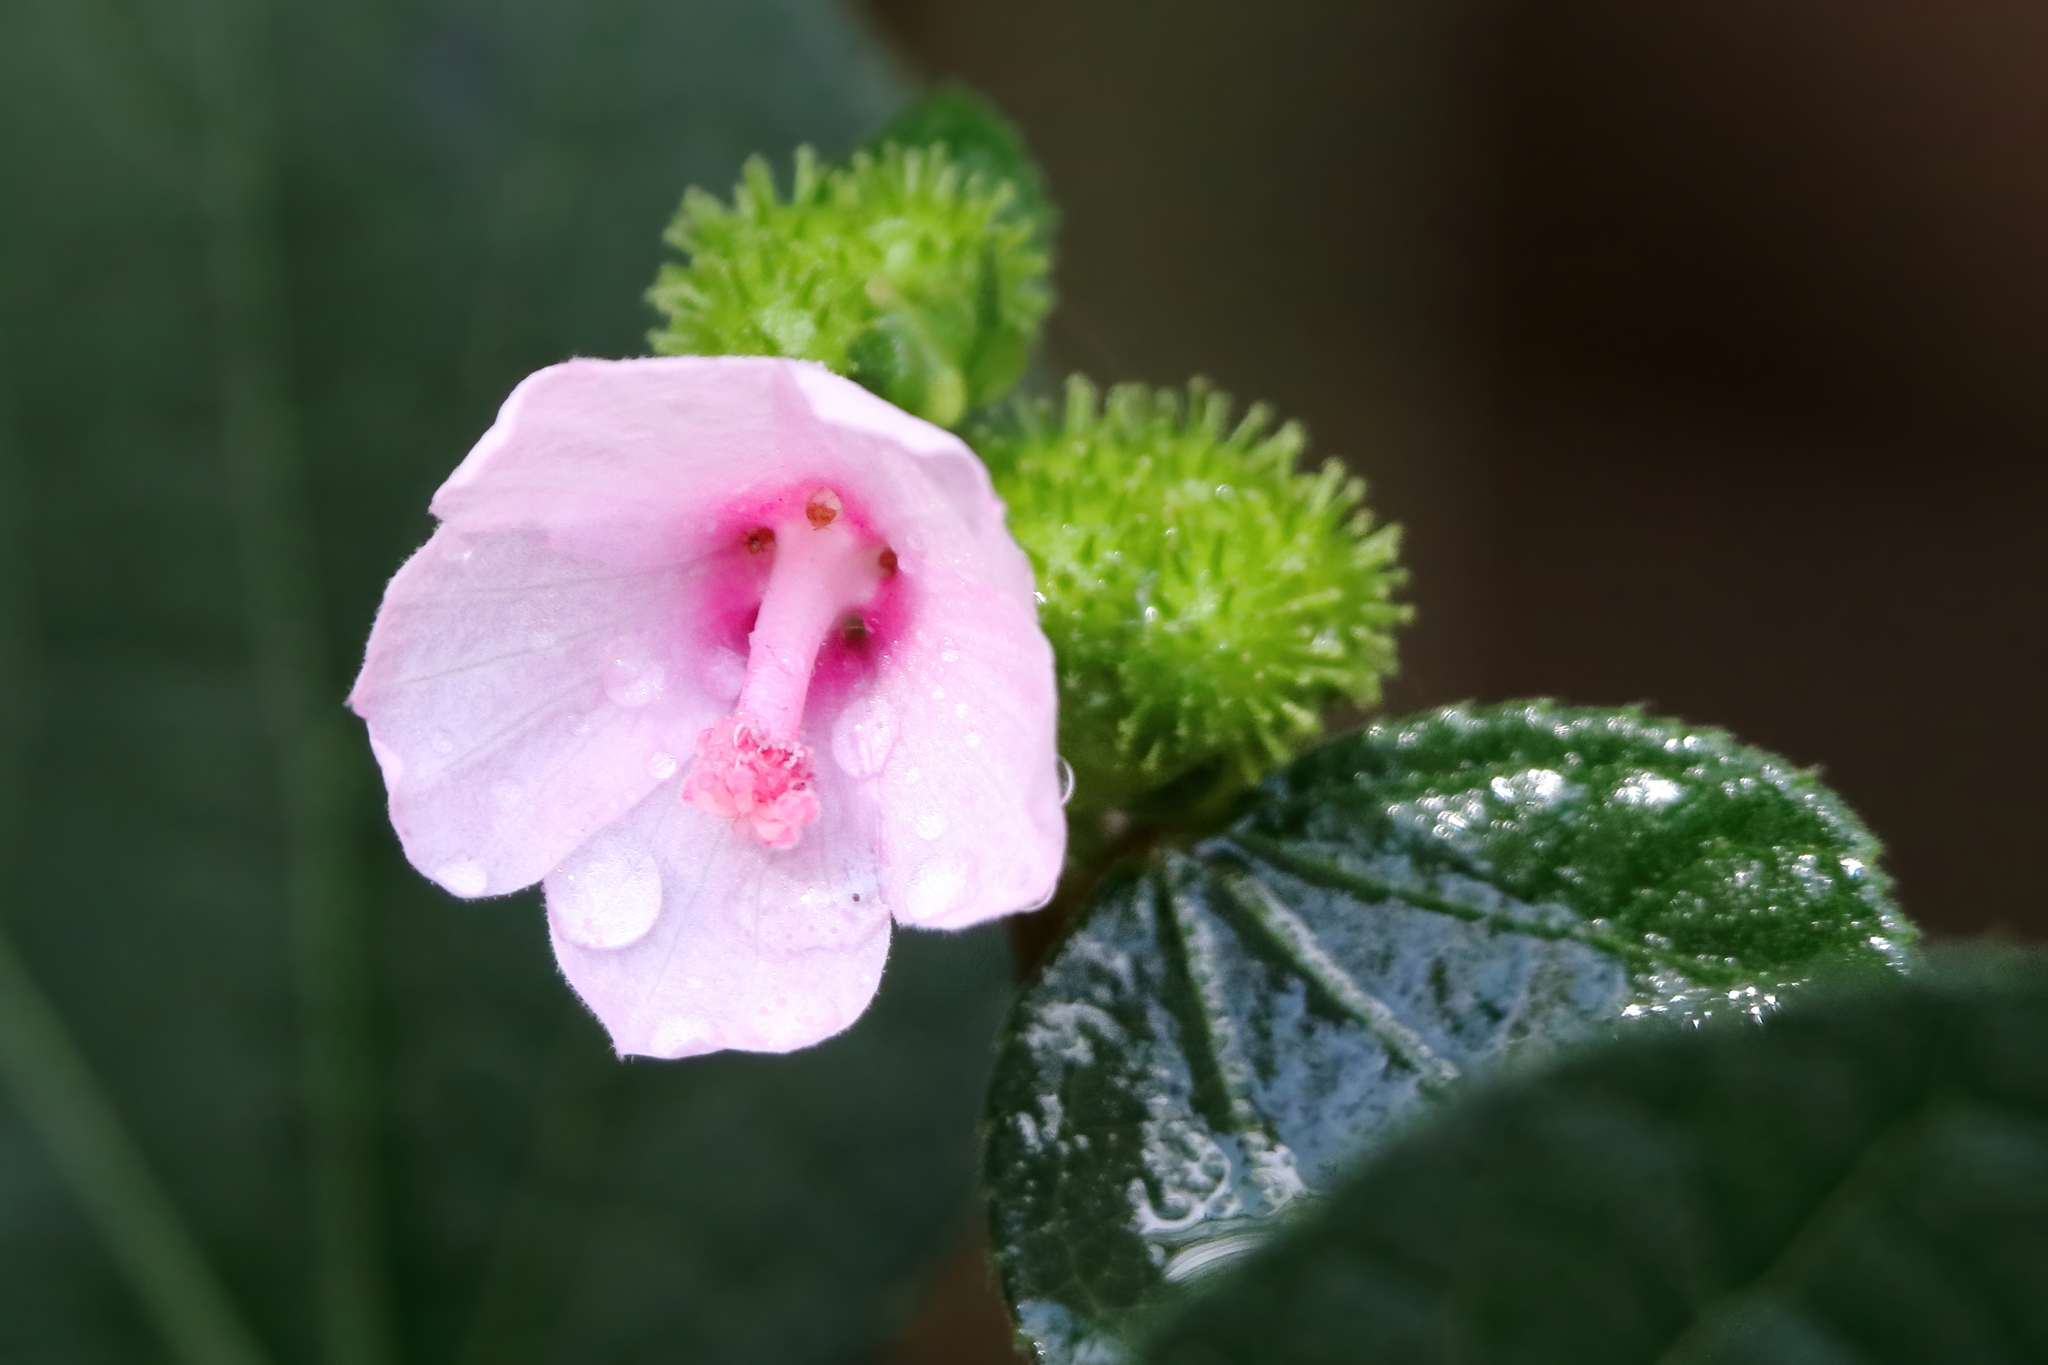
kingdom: Plantae
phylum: Tracheophyta
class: Magnoliopsida
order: Malvales
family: Malvaceae
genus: Urena
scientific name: Urena lobata
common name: Caesarweed
